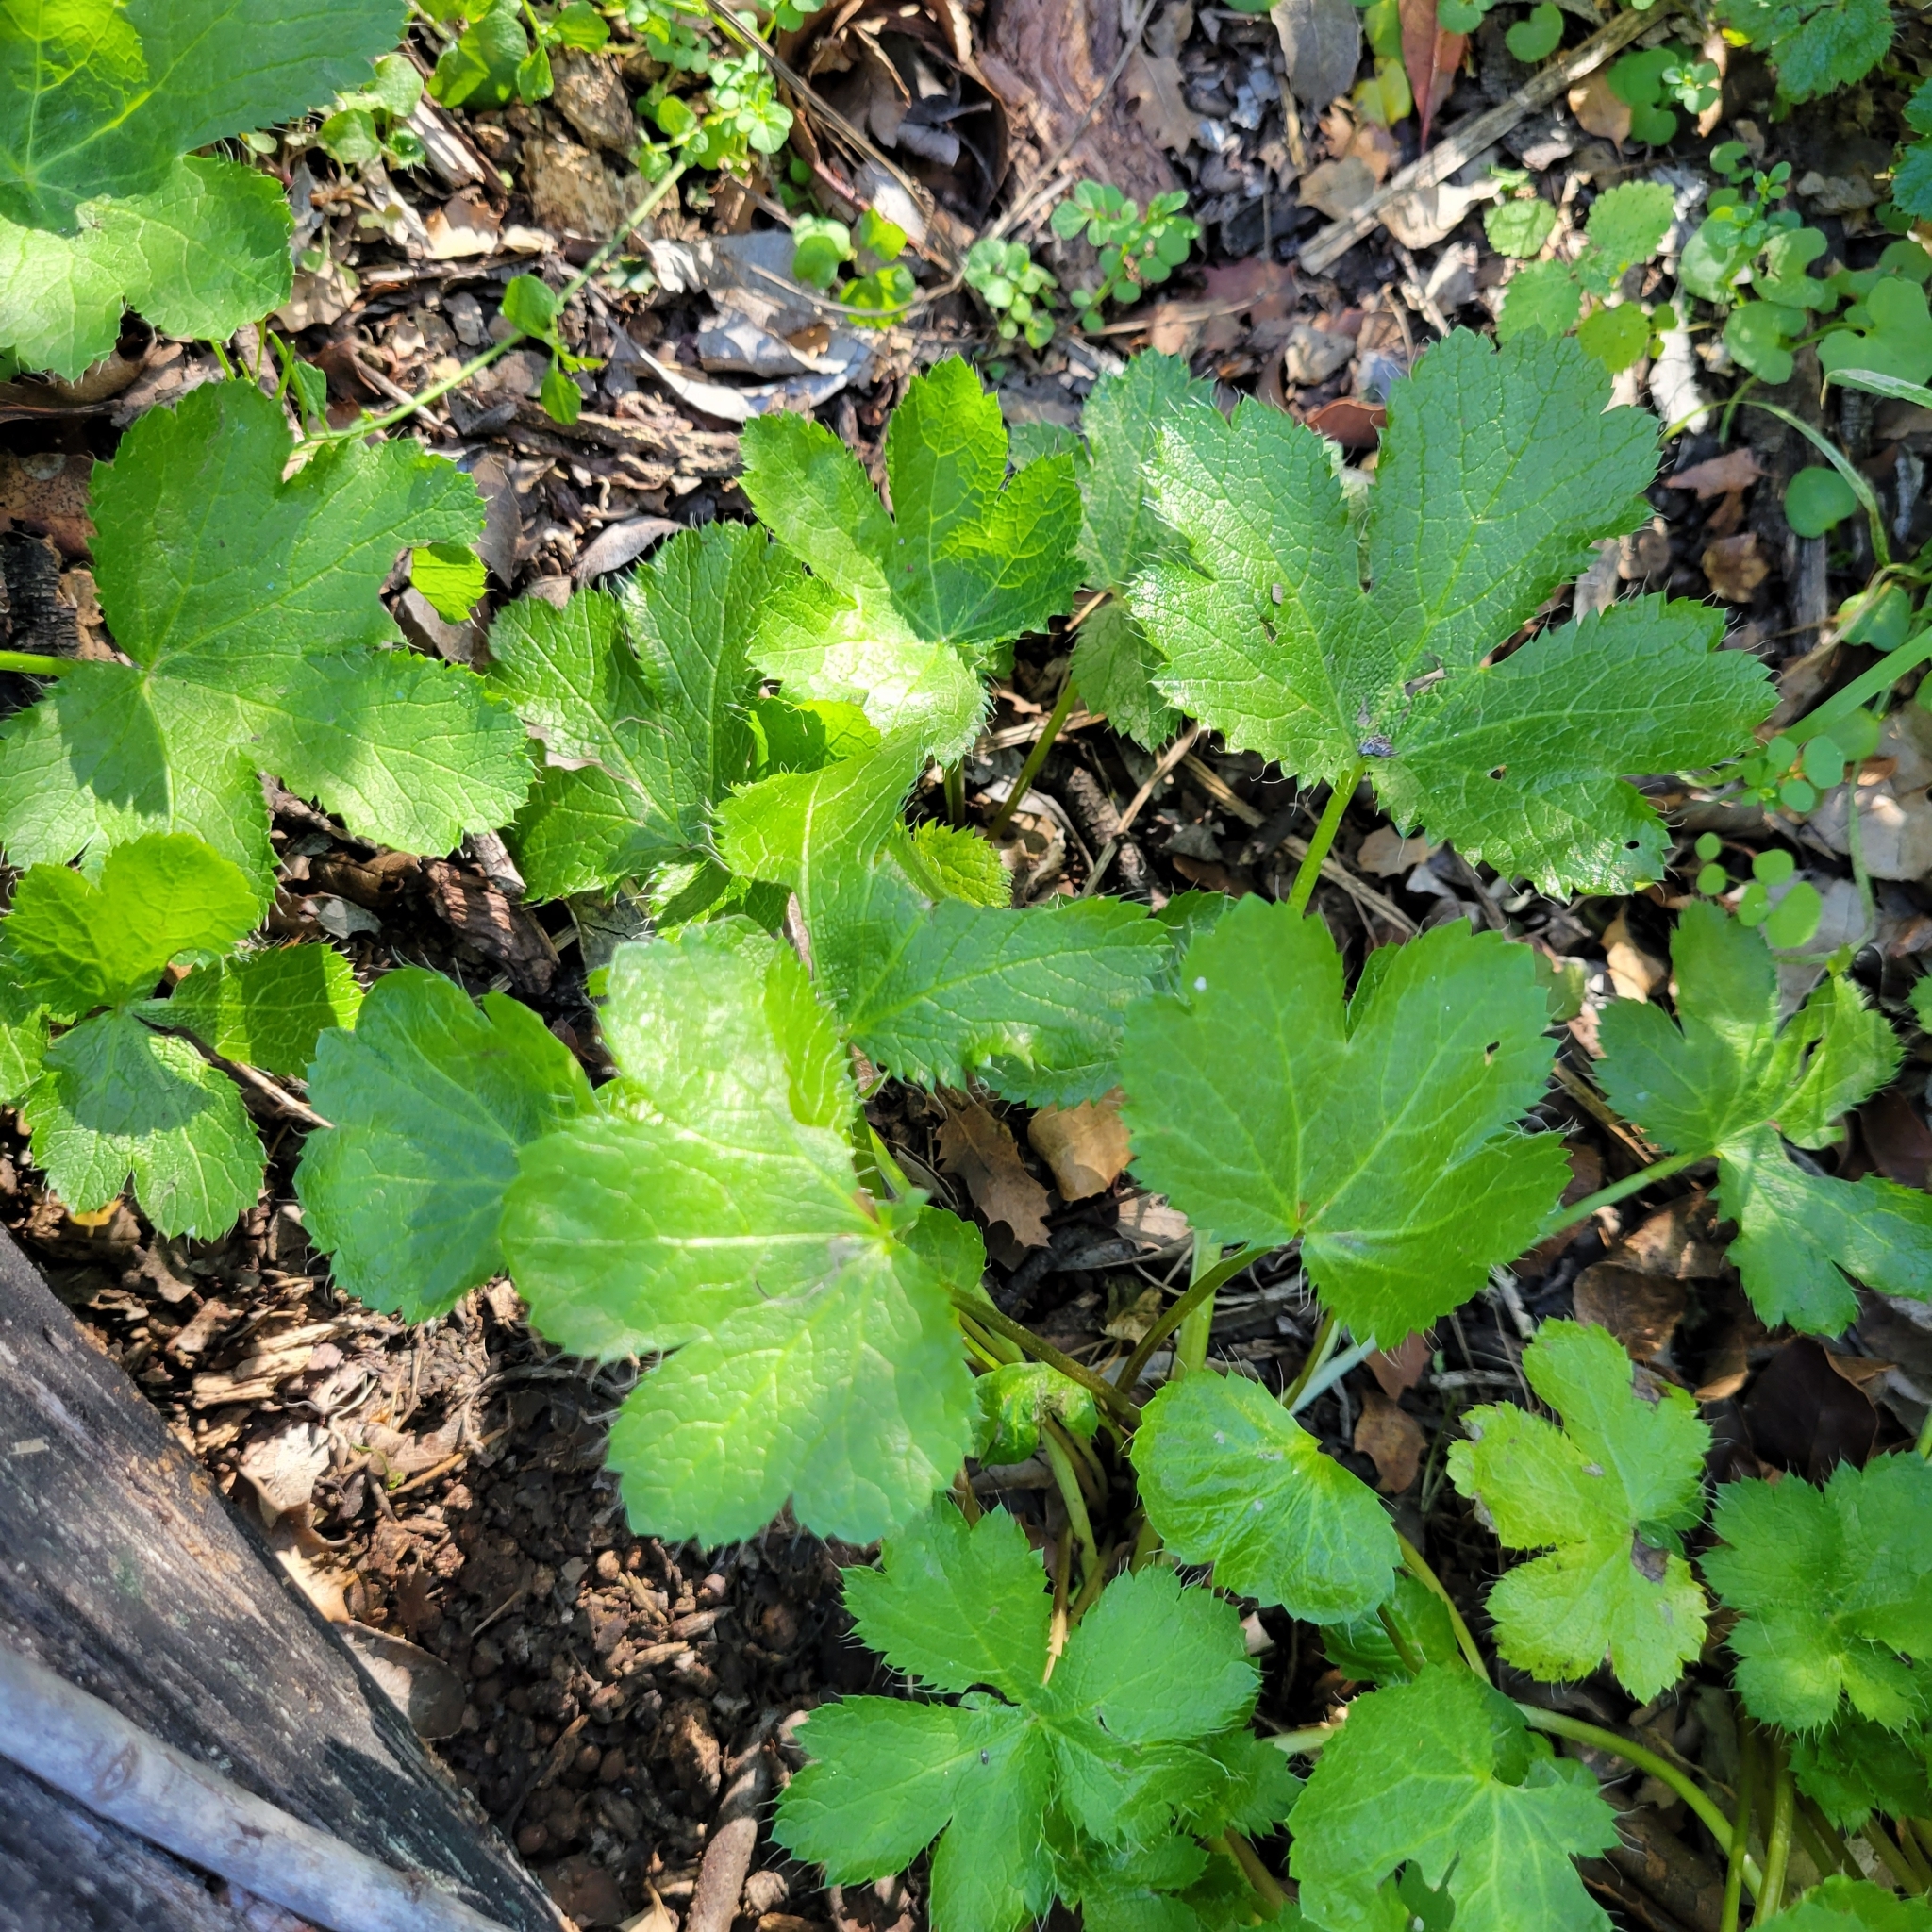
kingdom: Plantae
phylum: Tracheophyta
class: Magnoliopsida
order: Apiales
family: Apiaceae
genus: Sanicula
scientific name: Sanicula crassicaulis
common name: Western snakeroot
